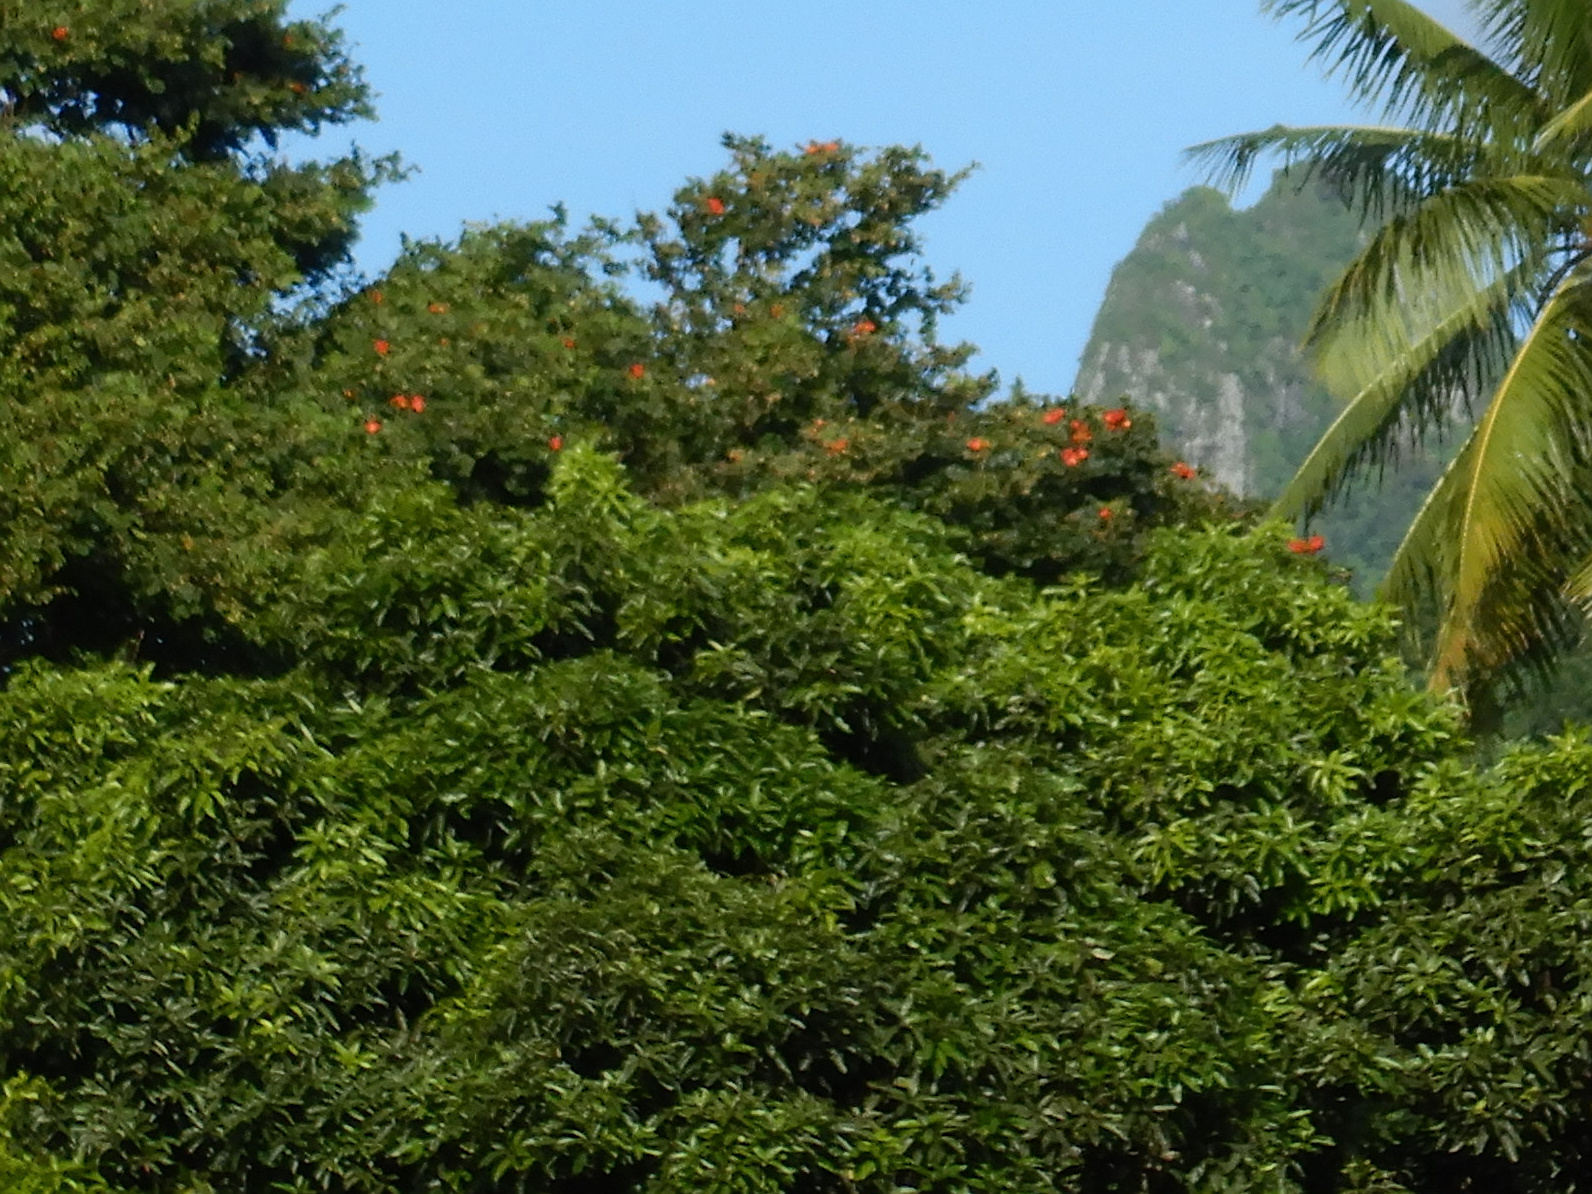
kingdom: Plantae
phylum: Tracheophyta
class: Magnoliopsida
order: Lamiales
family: Bignoniaceae
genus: Spathodea
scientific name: Spathodea campanulata
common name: African tuliptree
